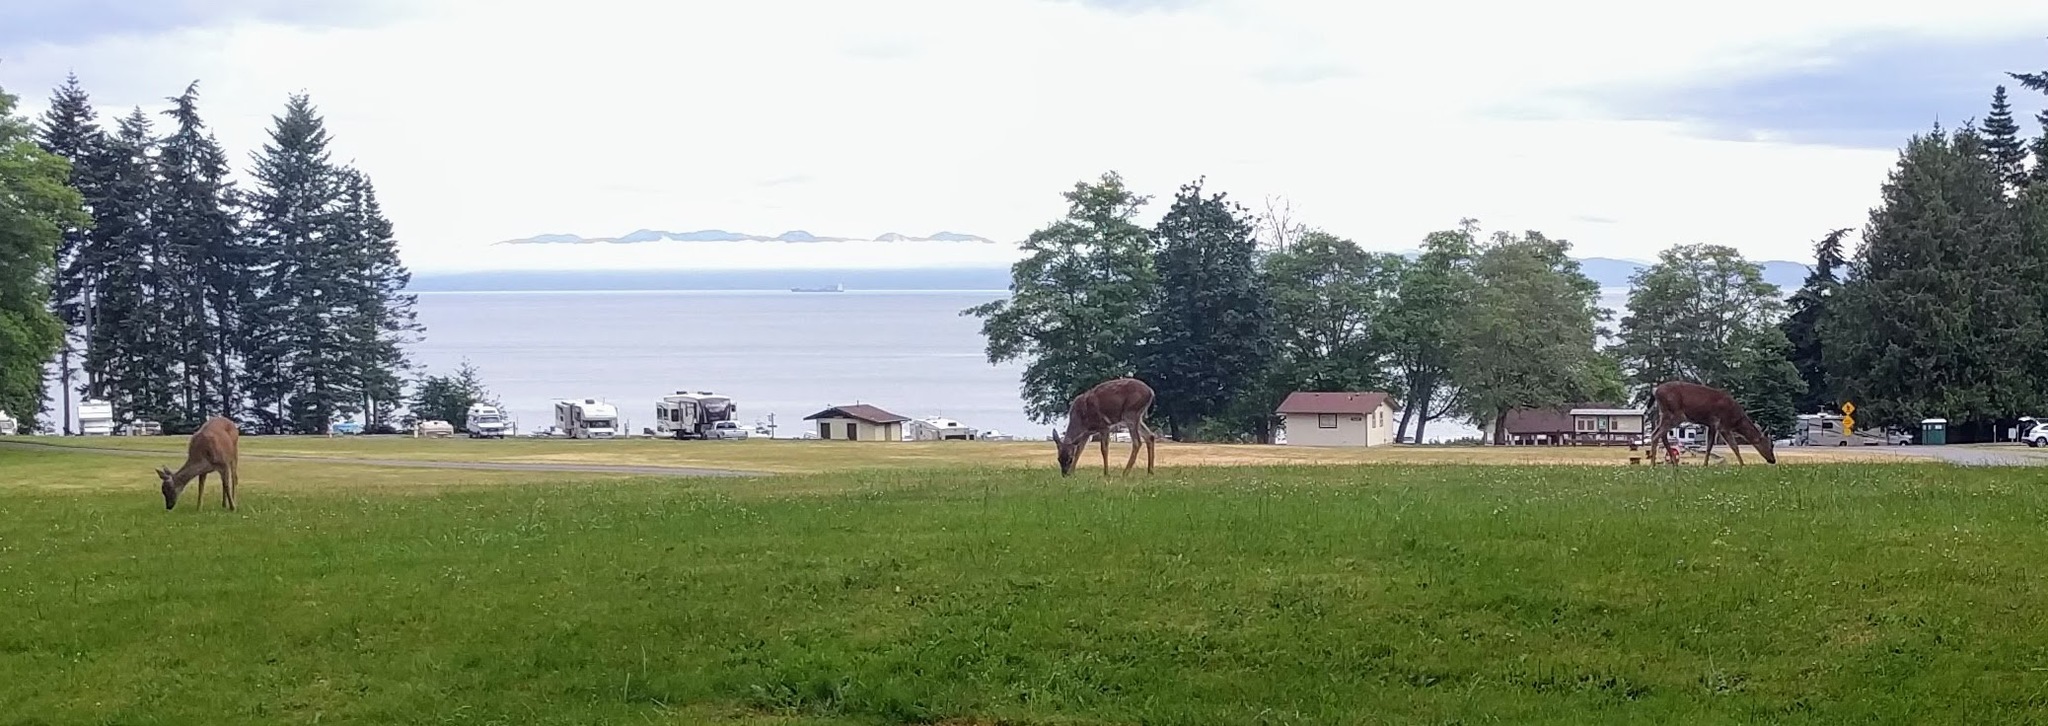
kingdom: Animalia
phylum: Chordata
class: Mammalia
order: Artiodactyla
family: Cervidae
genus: Odocoileus
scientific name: Odocoileus hemionus
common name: Mule deer
